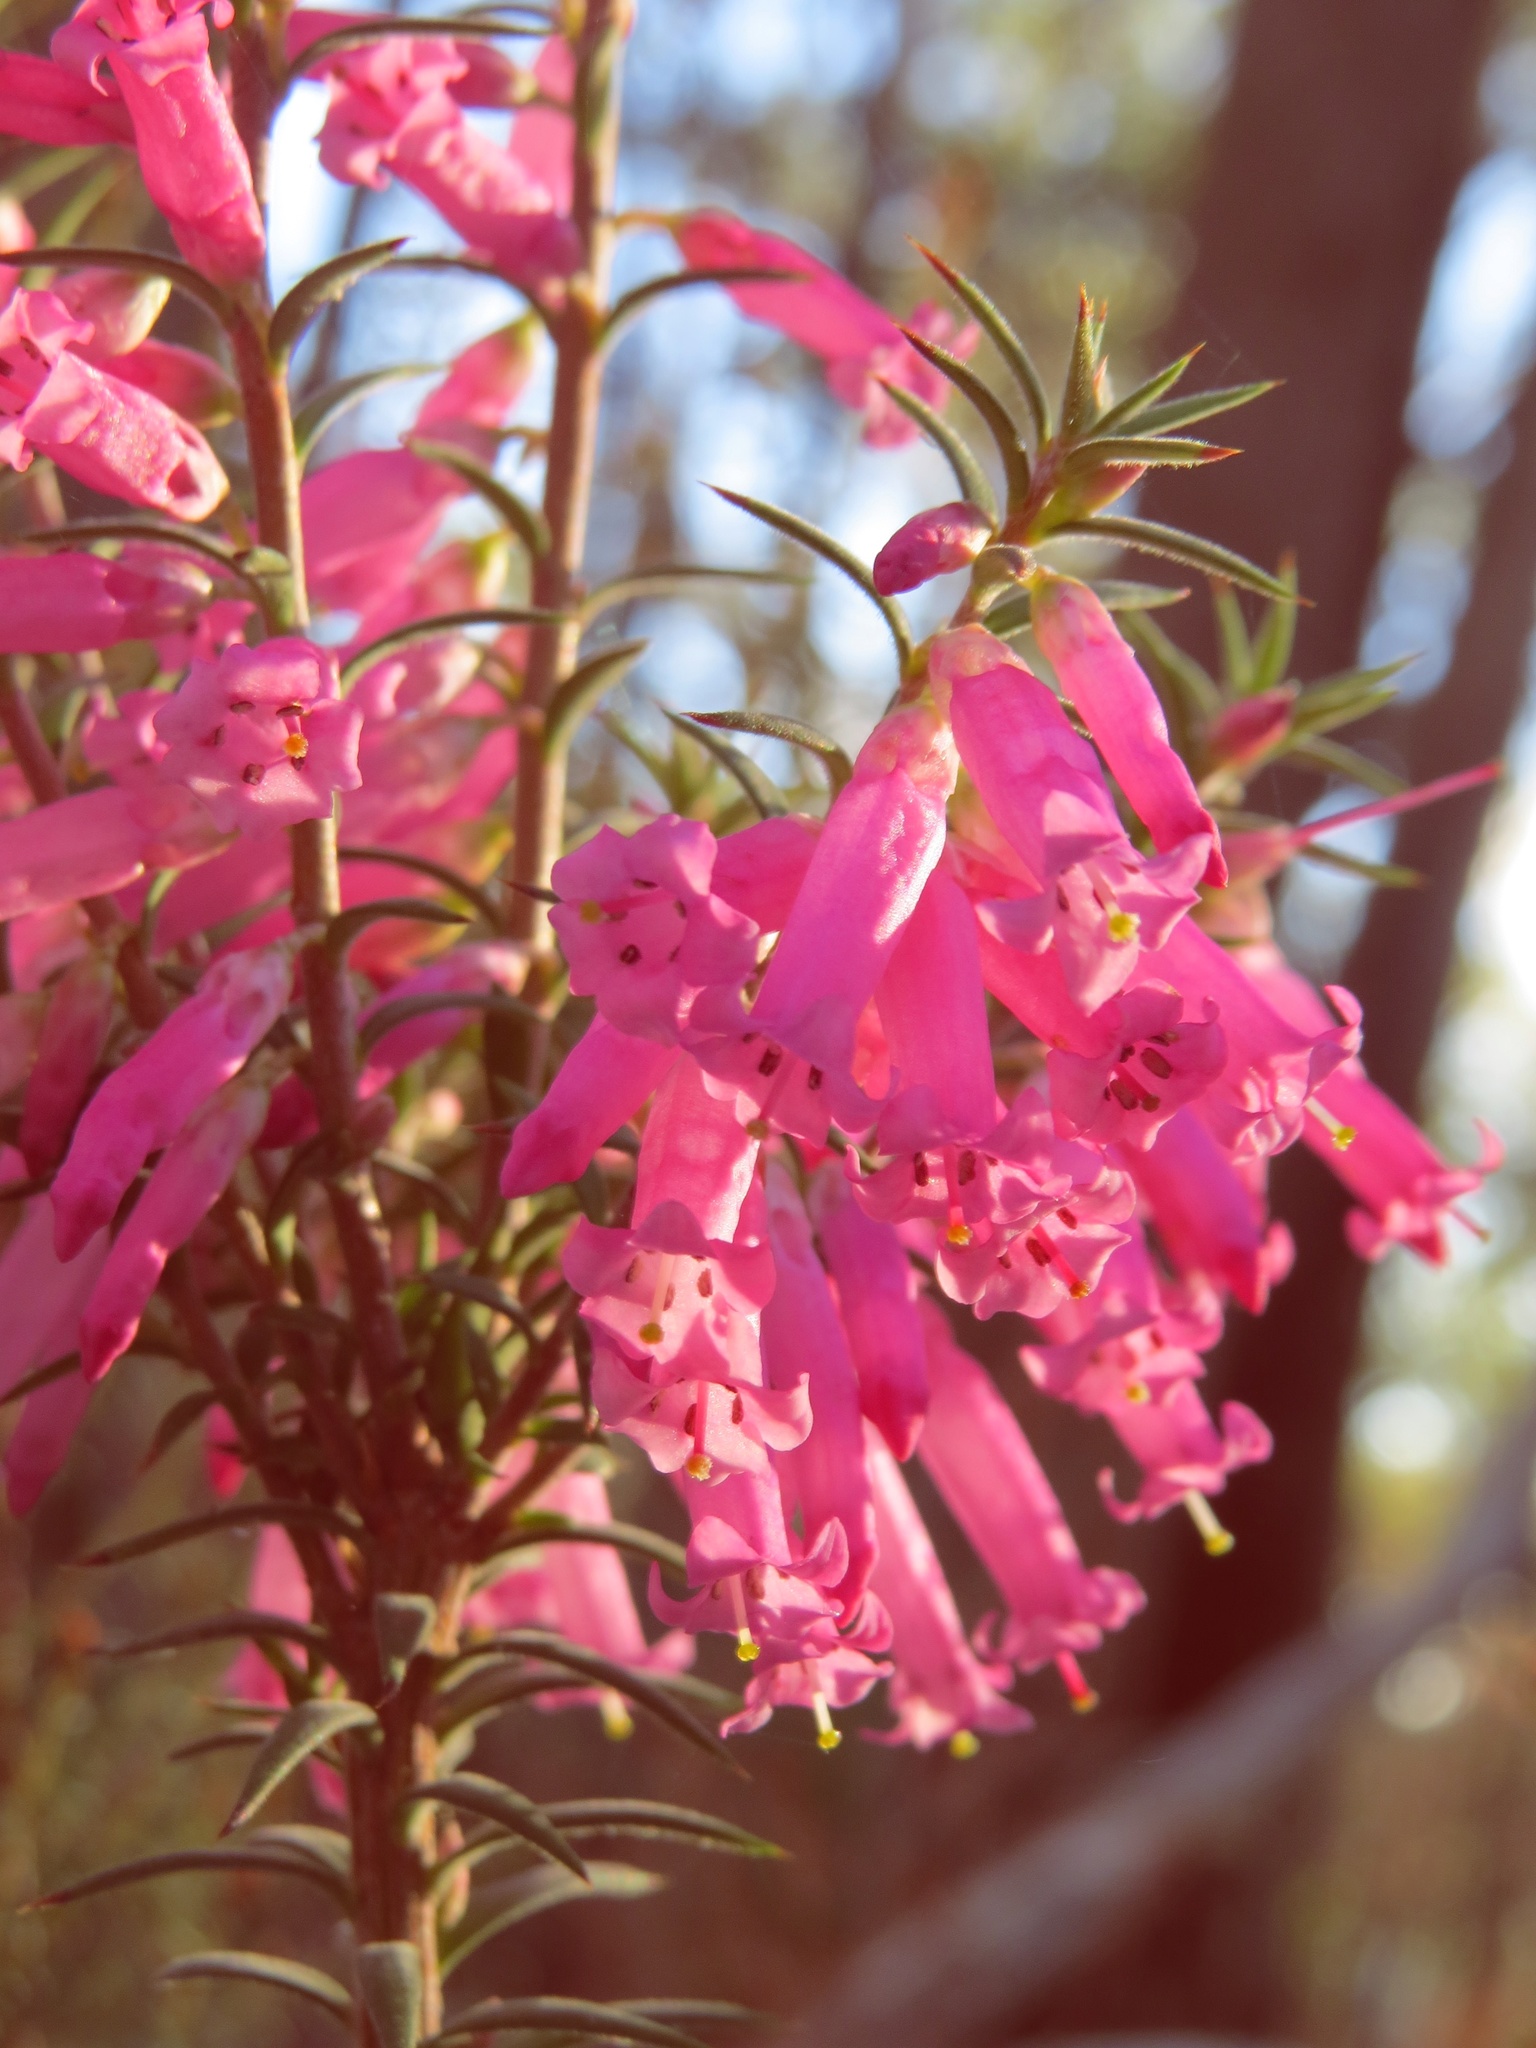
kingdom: Plantae
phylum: Tracheophyta
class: Magnoliopsida
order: Ericales
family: Ericaceae
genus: Epacris
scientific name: Epacris impressa
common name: Common-heath
